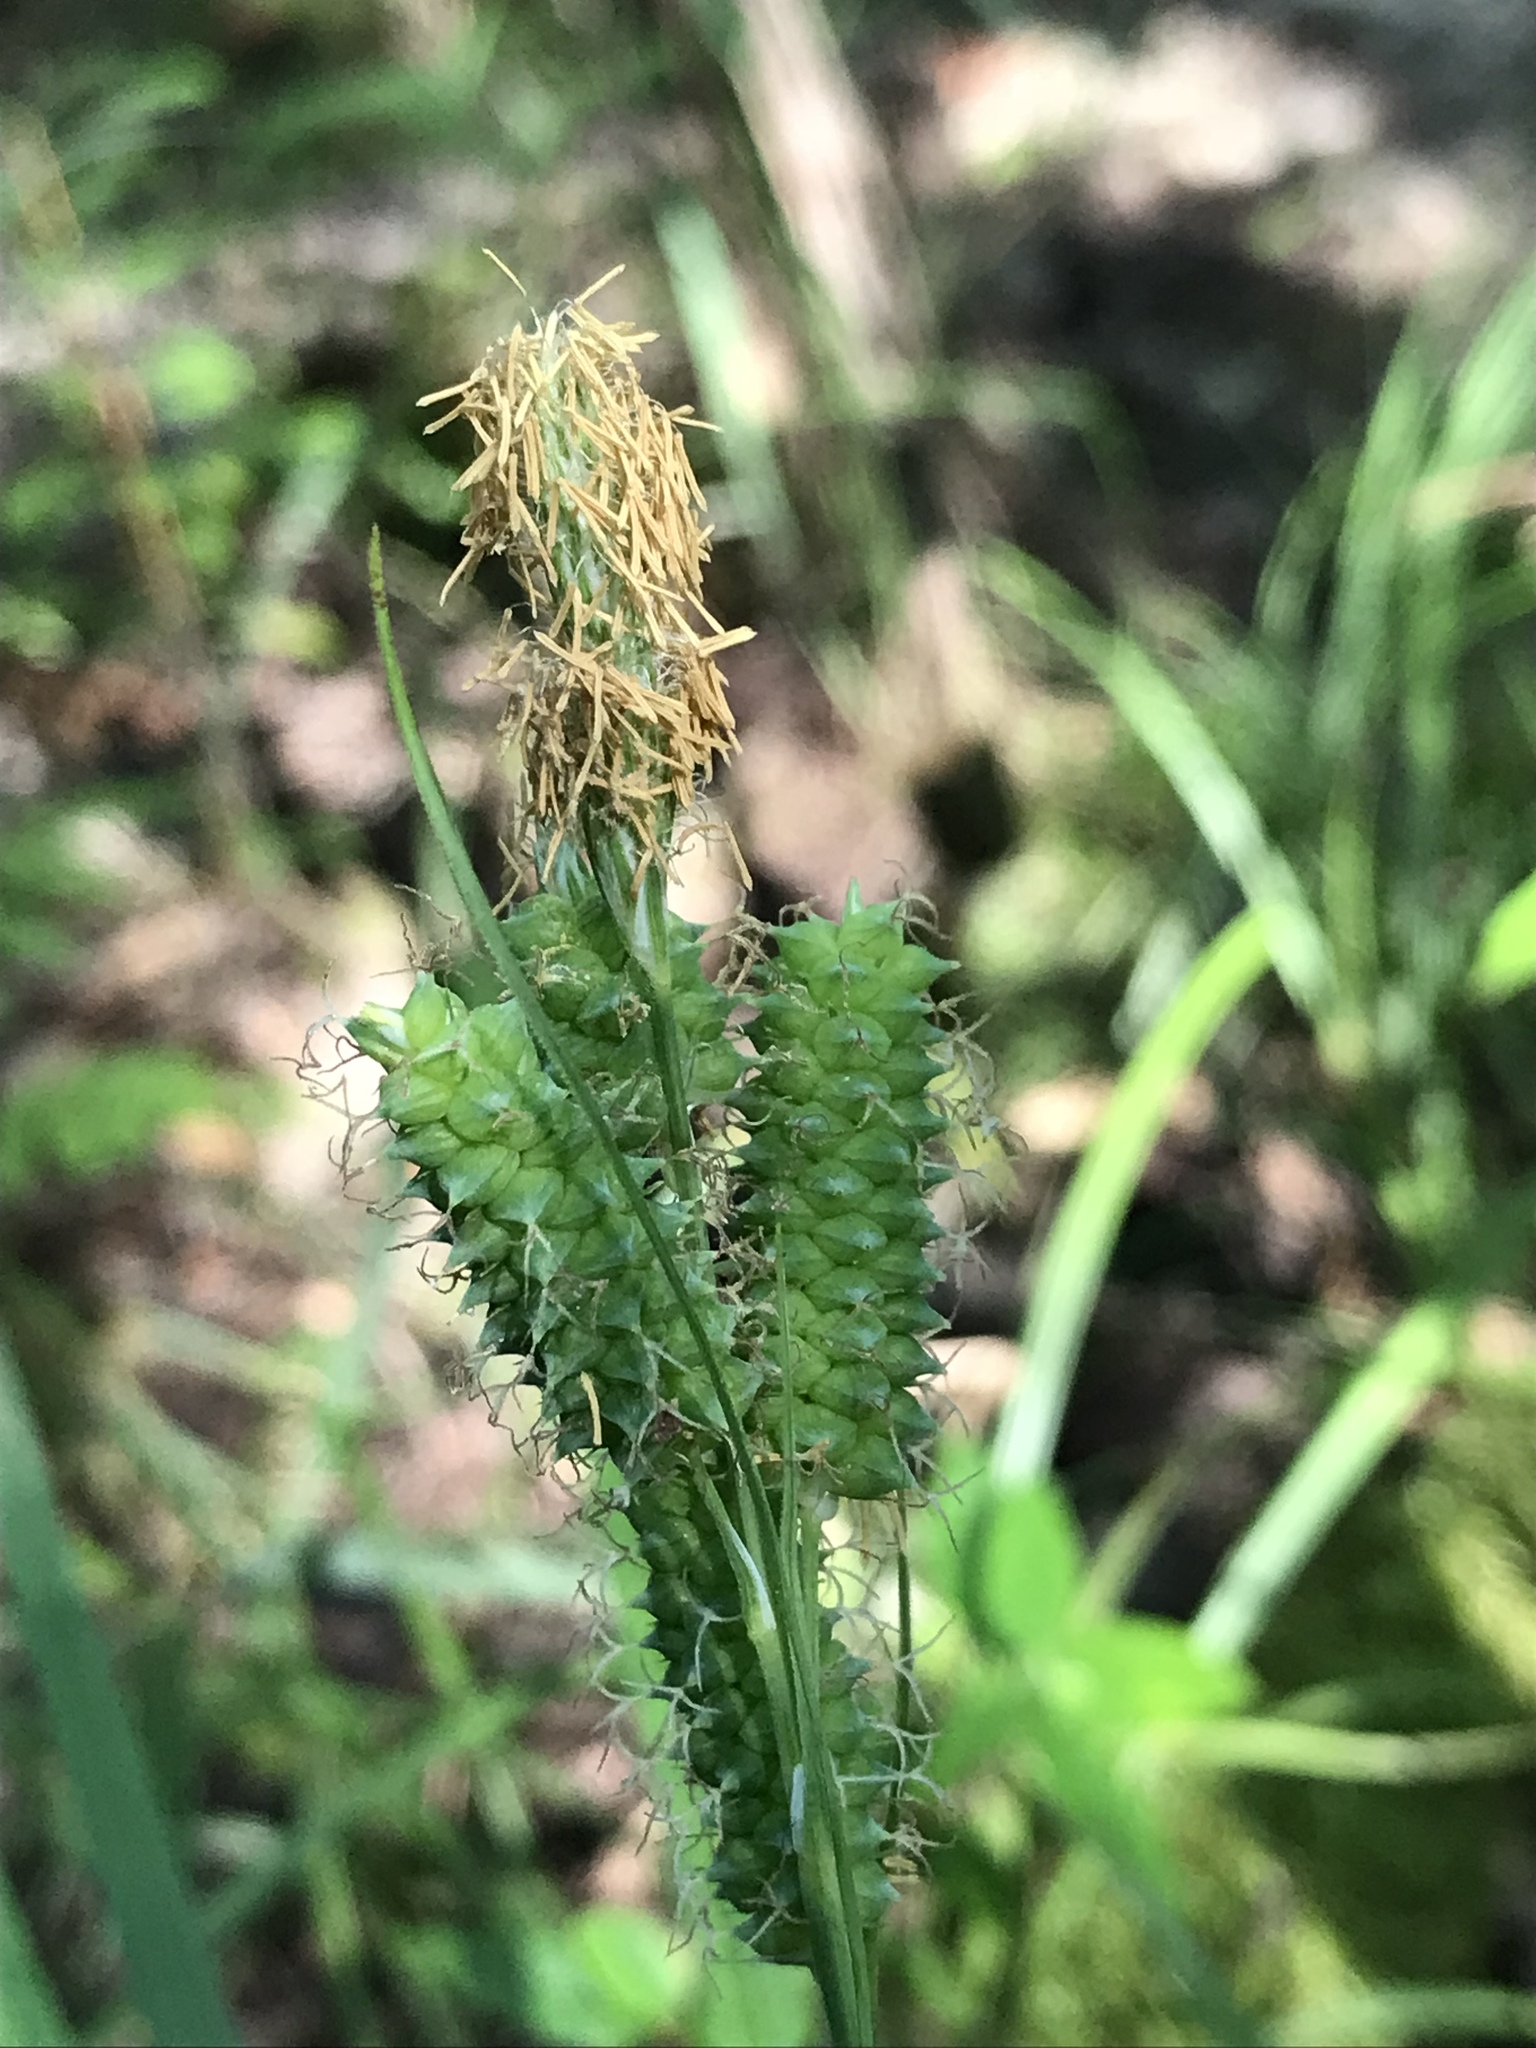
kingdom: Plantae
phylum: Tracheophyta
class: Liliopsida
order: Poales
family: Cyperaceae
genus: Carex
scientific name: Carex glaucescens
